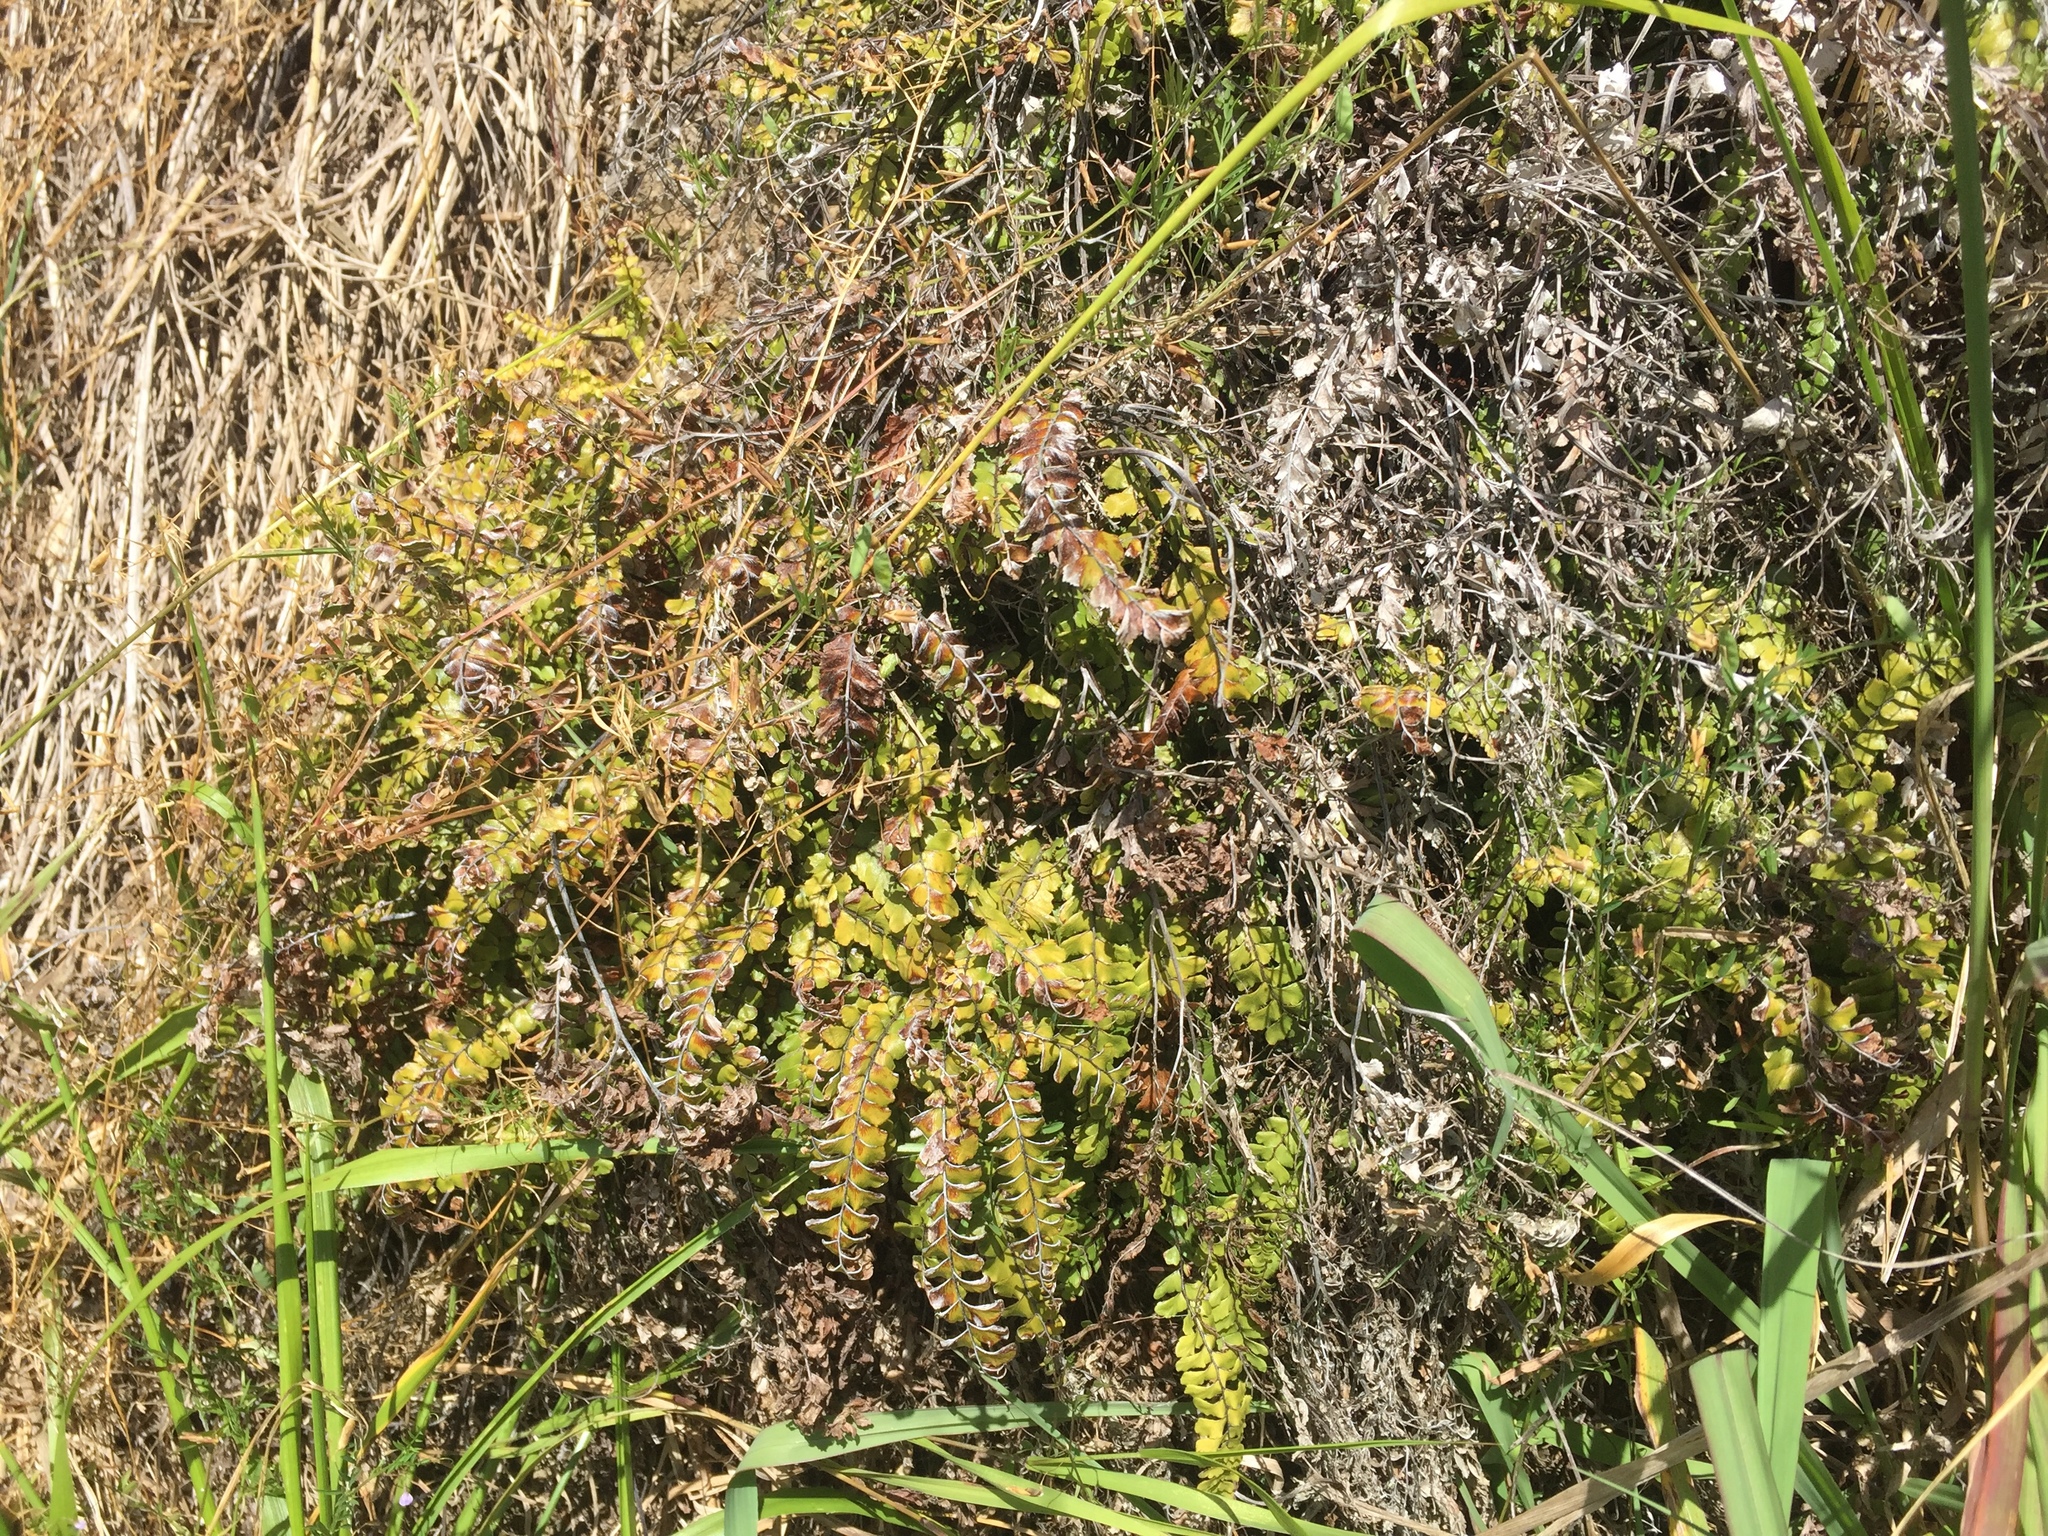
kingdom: Plantae
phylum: Tracheophyta
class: Polypodiopsida
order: Polypodiales
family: Pteridaceae
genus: Adiantum
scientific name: Adiantum hispidulum
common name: Rough maidenhair
